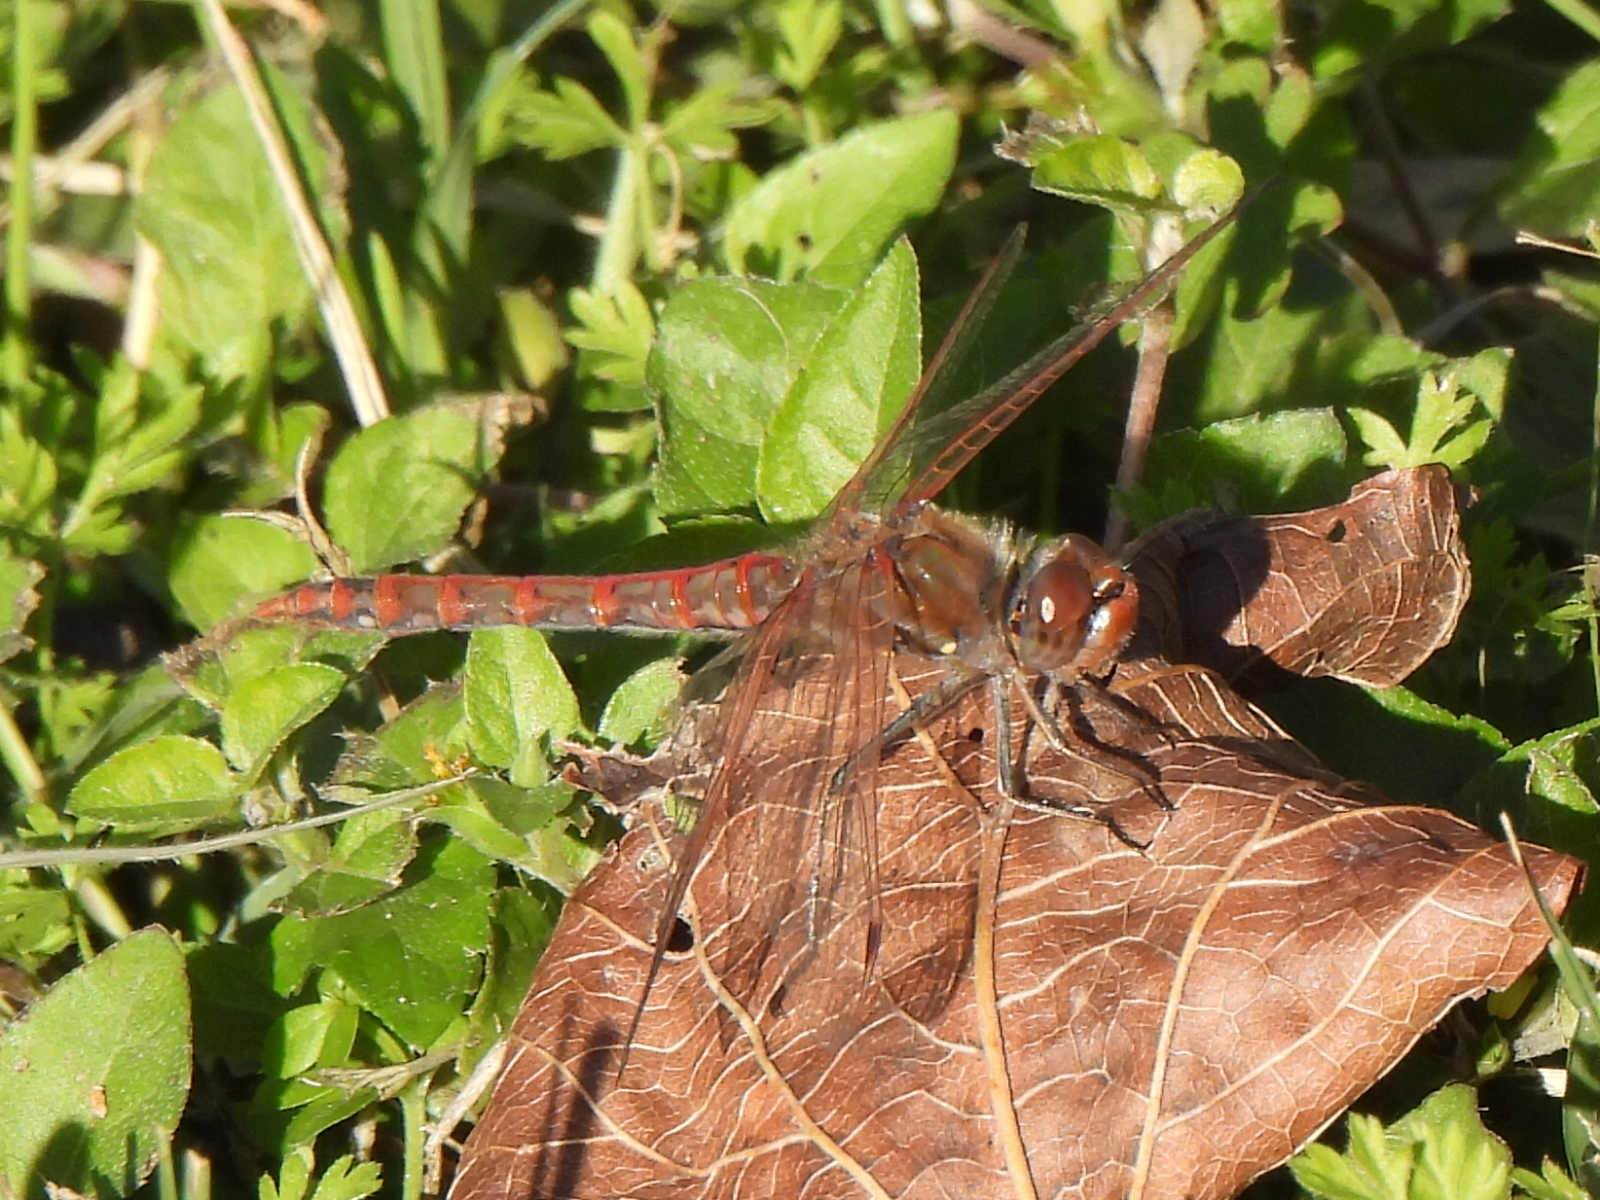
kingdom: Animalia
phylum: Arthropoda
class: Insecta
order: Odonata
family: Libellulidae
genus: Sympetrum
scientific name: Sympetrum corruptum
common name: Variegated meadowhawk
